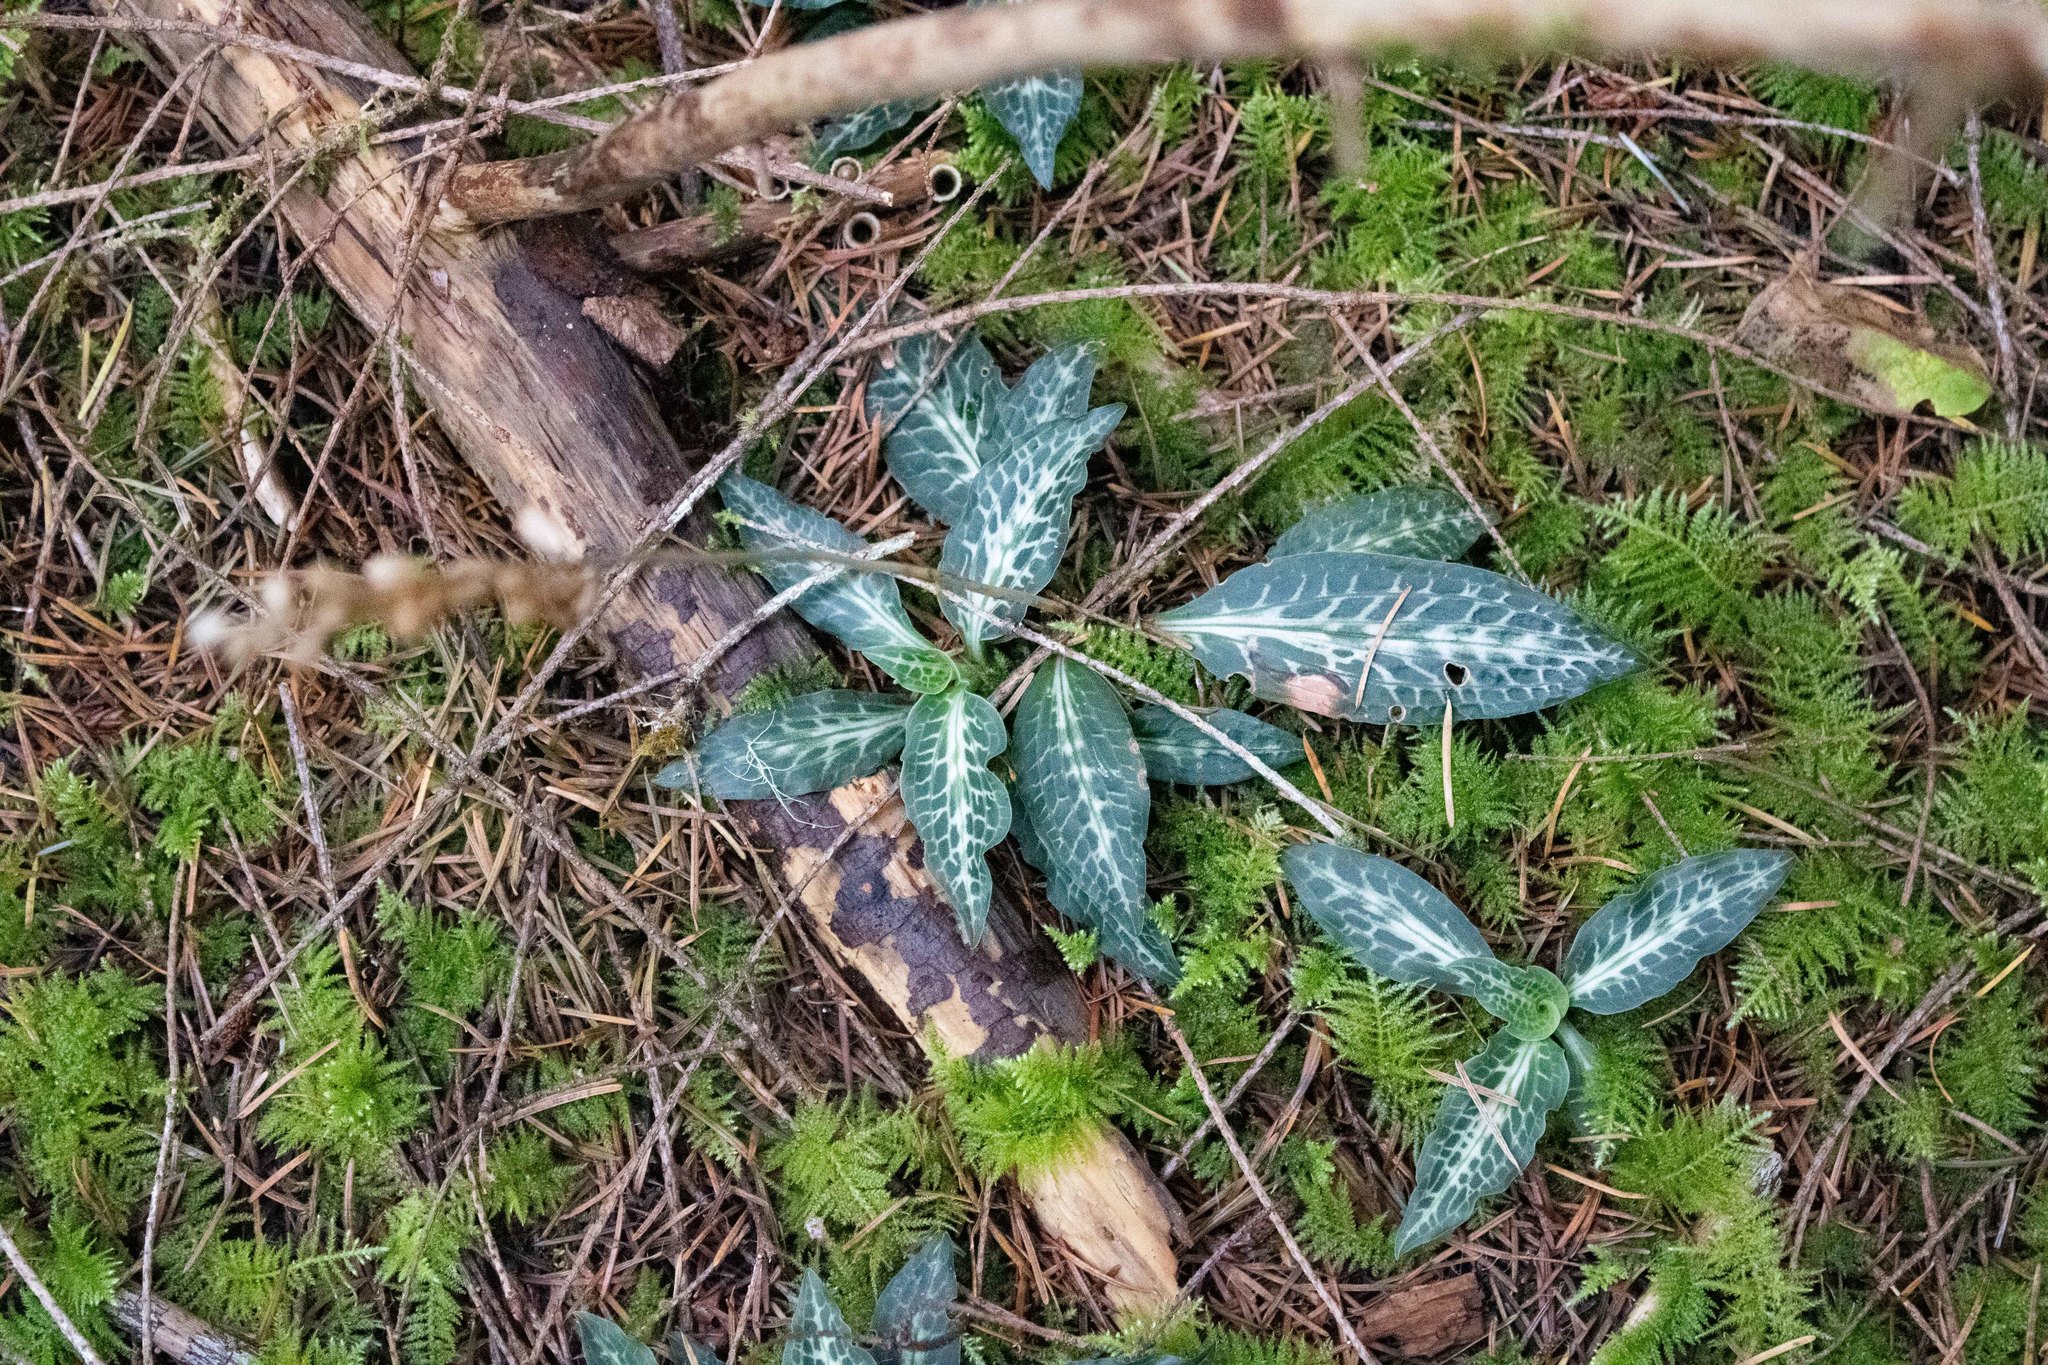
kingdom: Plantae
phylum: Tracheophyta
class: Liliopsida
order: Asparagales
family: Orchidaceae
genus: Goodyera
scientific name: Goodyera oblongifolia
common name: Giant rattlesnake-plantain
